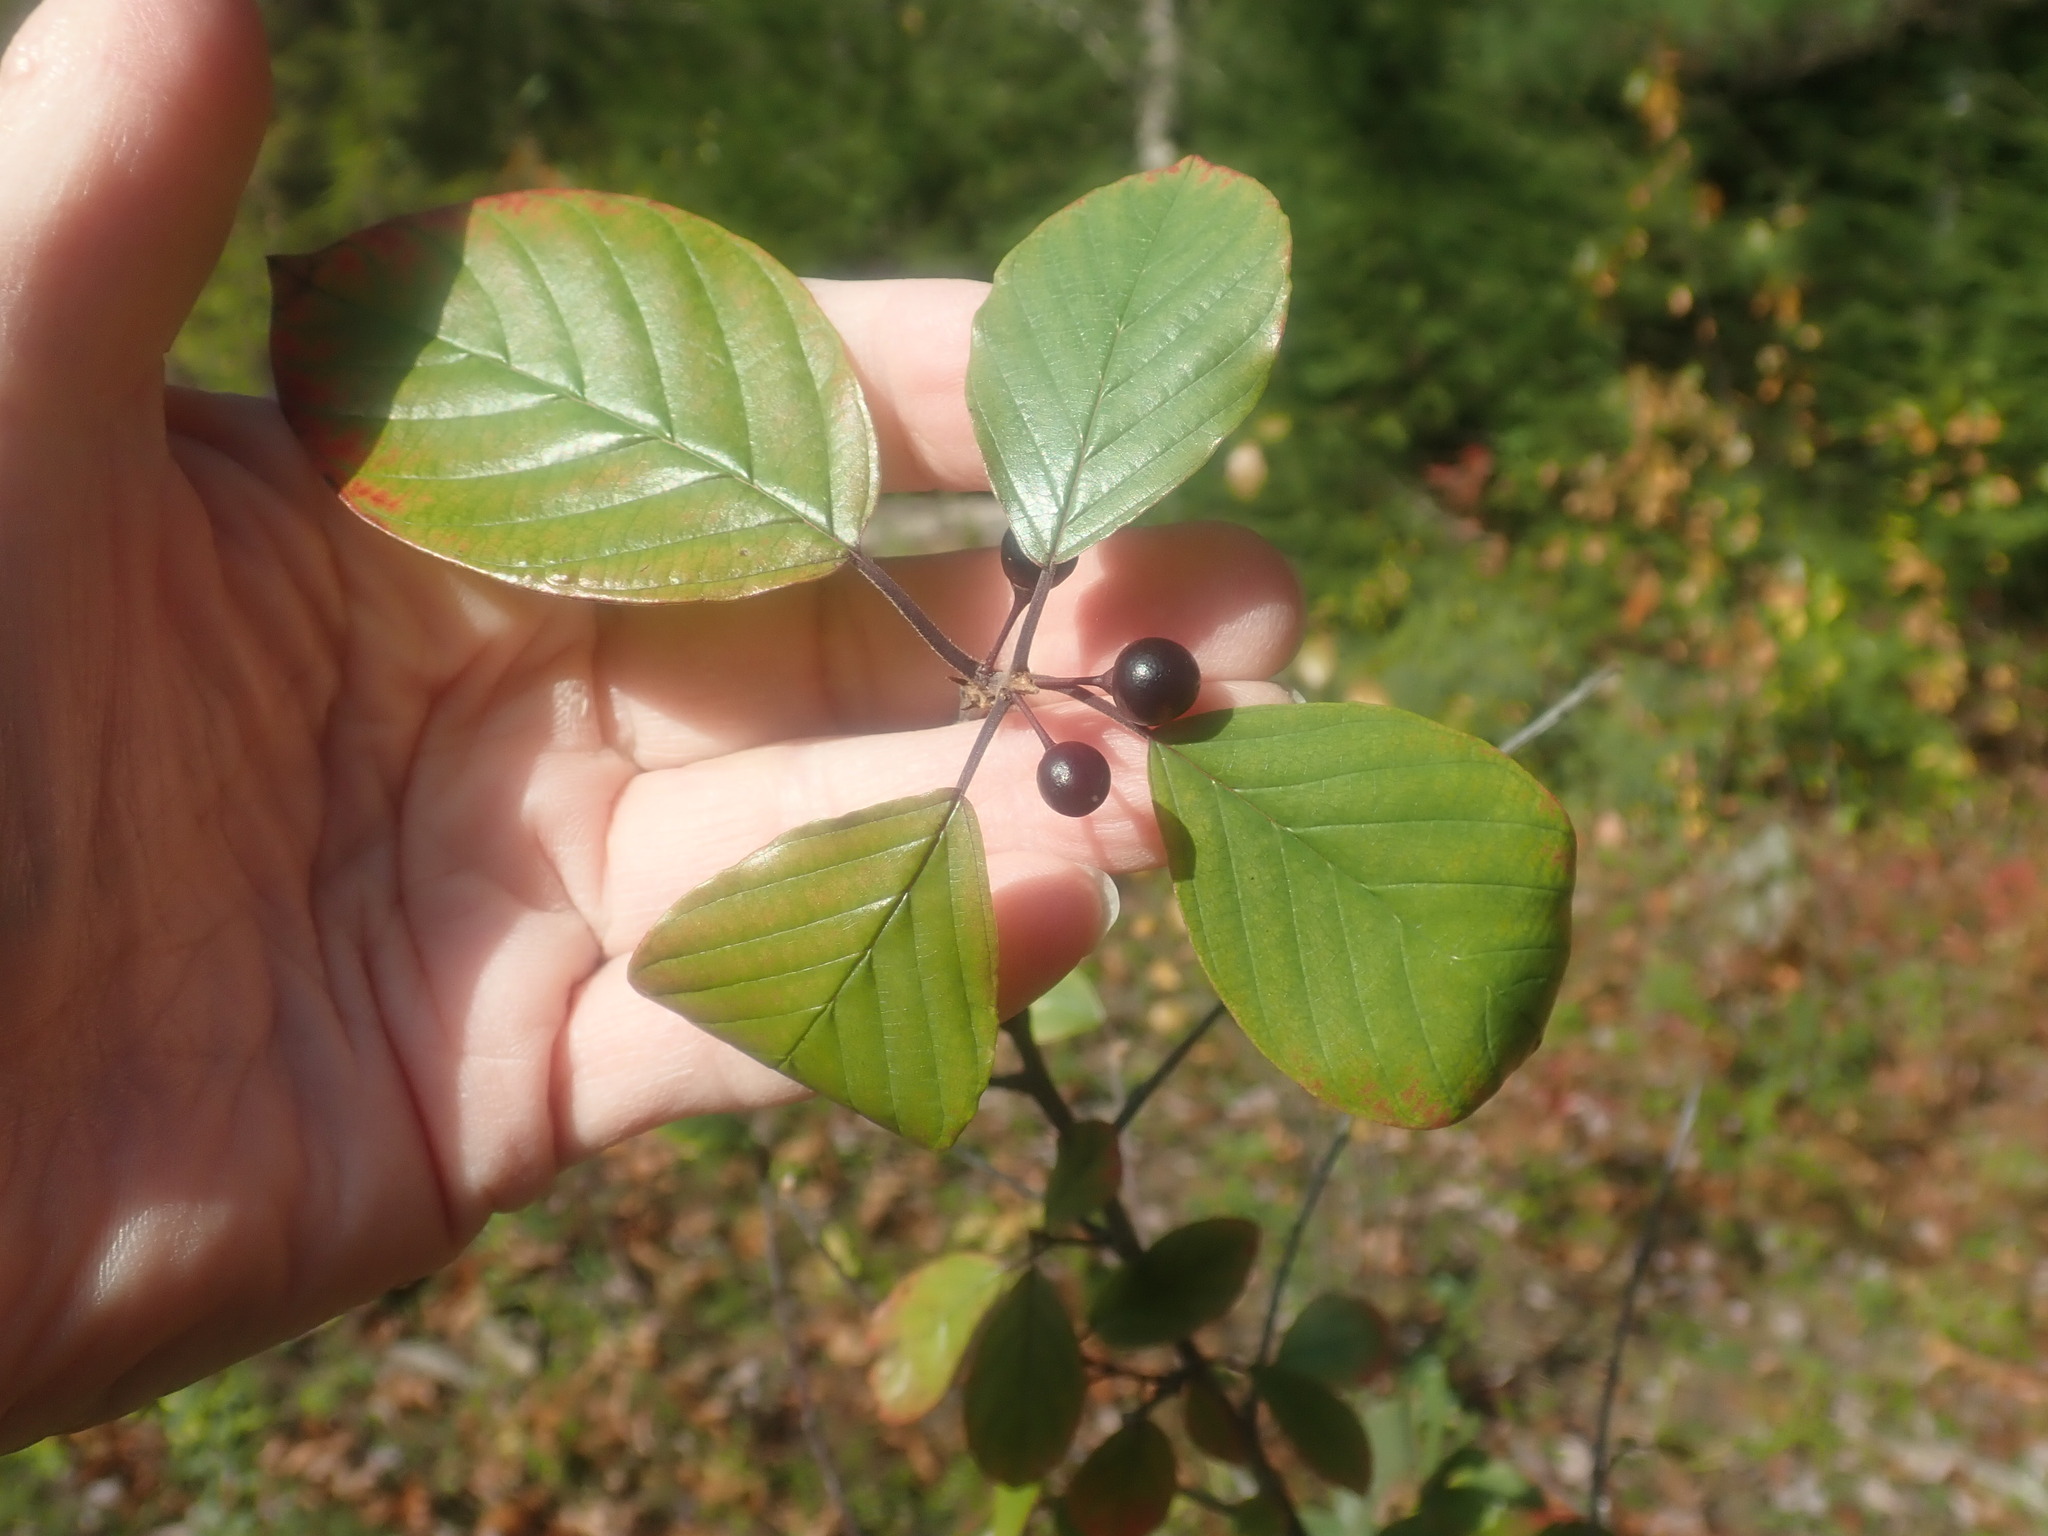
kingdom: Plantae
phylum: Tracheophyta
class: Magnoliopsida
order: Rosales
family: Rhamnaceae
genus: Frangula
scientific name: Frangula alnus
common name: Alder buckthorn
